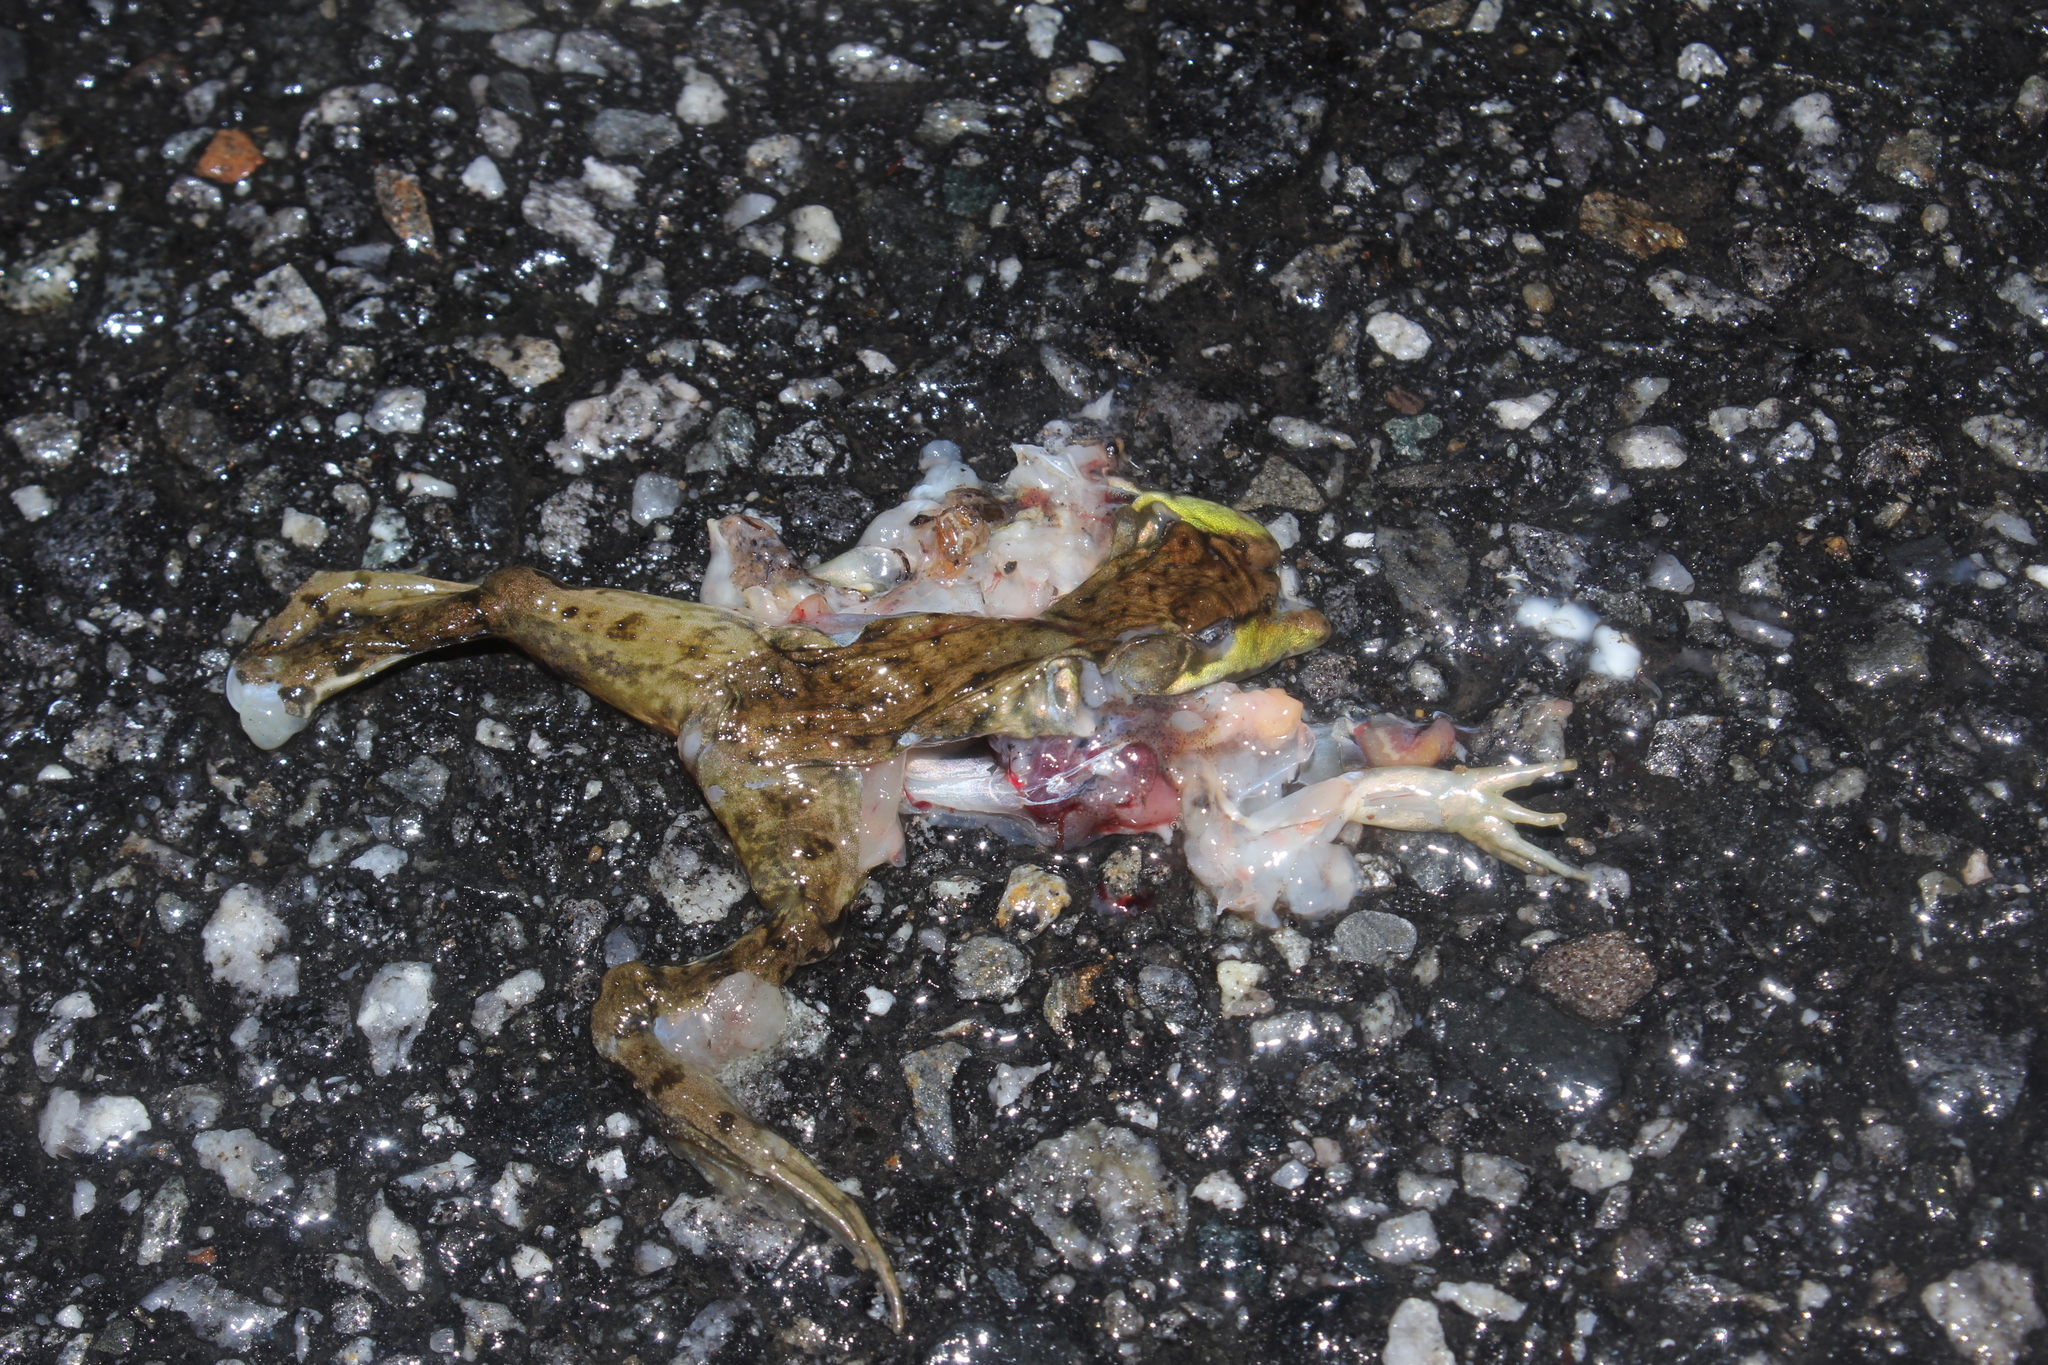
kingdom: Animalia
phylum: Chordata
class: Amphibia
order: Anura
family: Ranidae
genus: Lithobates
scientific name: Lithobates clamitans
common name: Green frog
